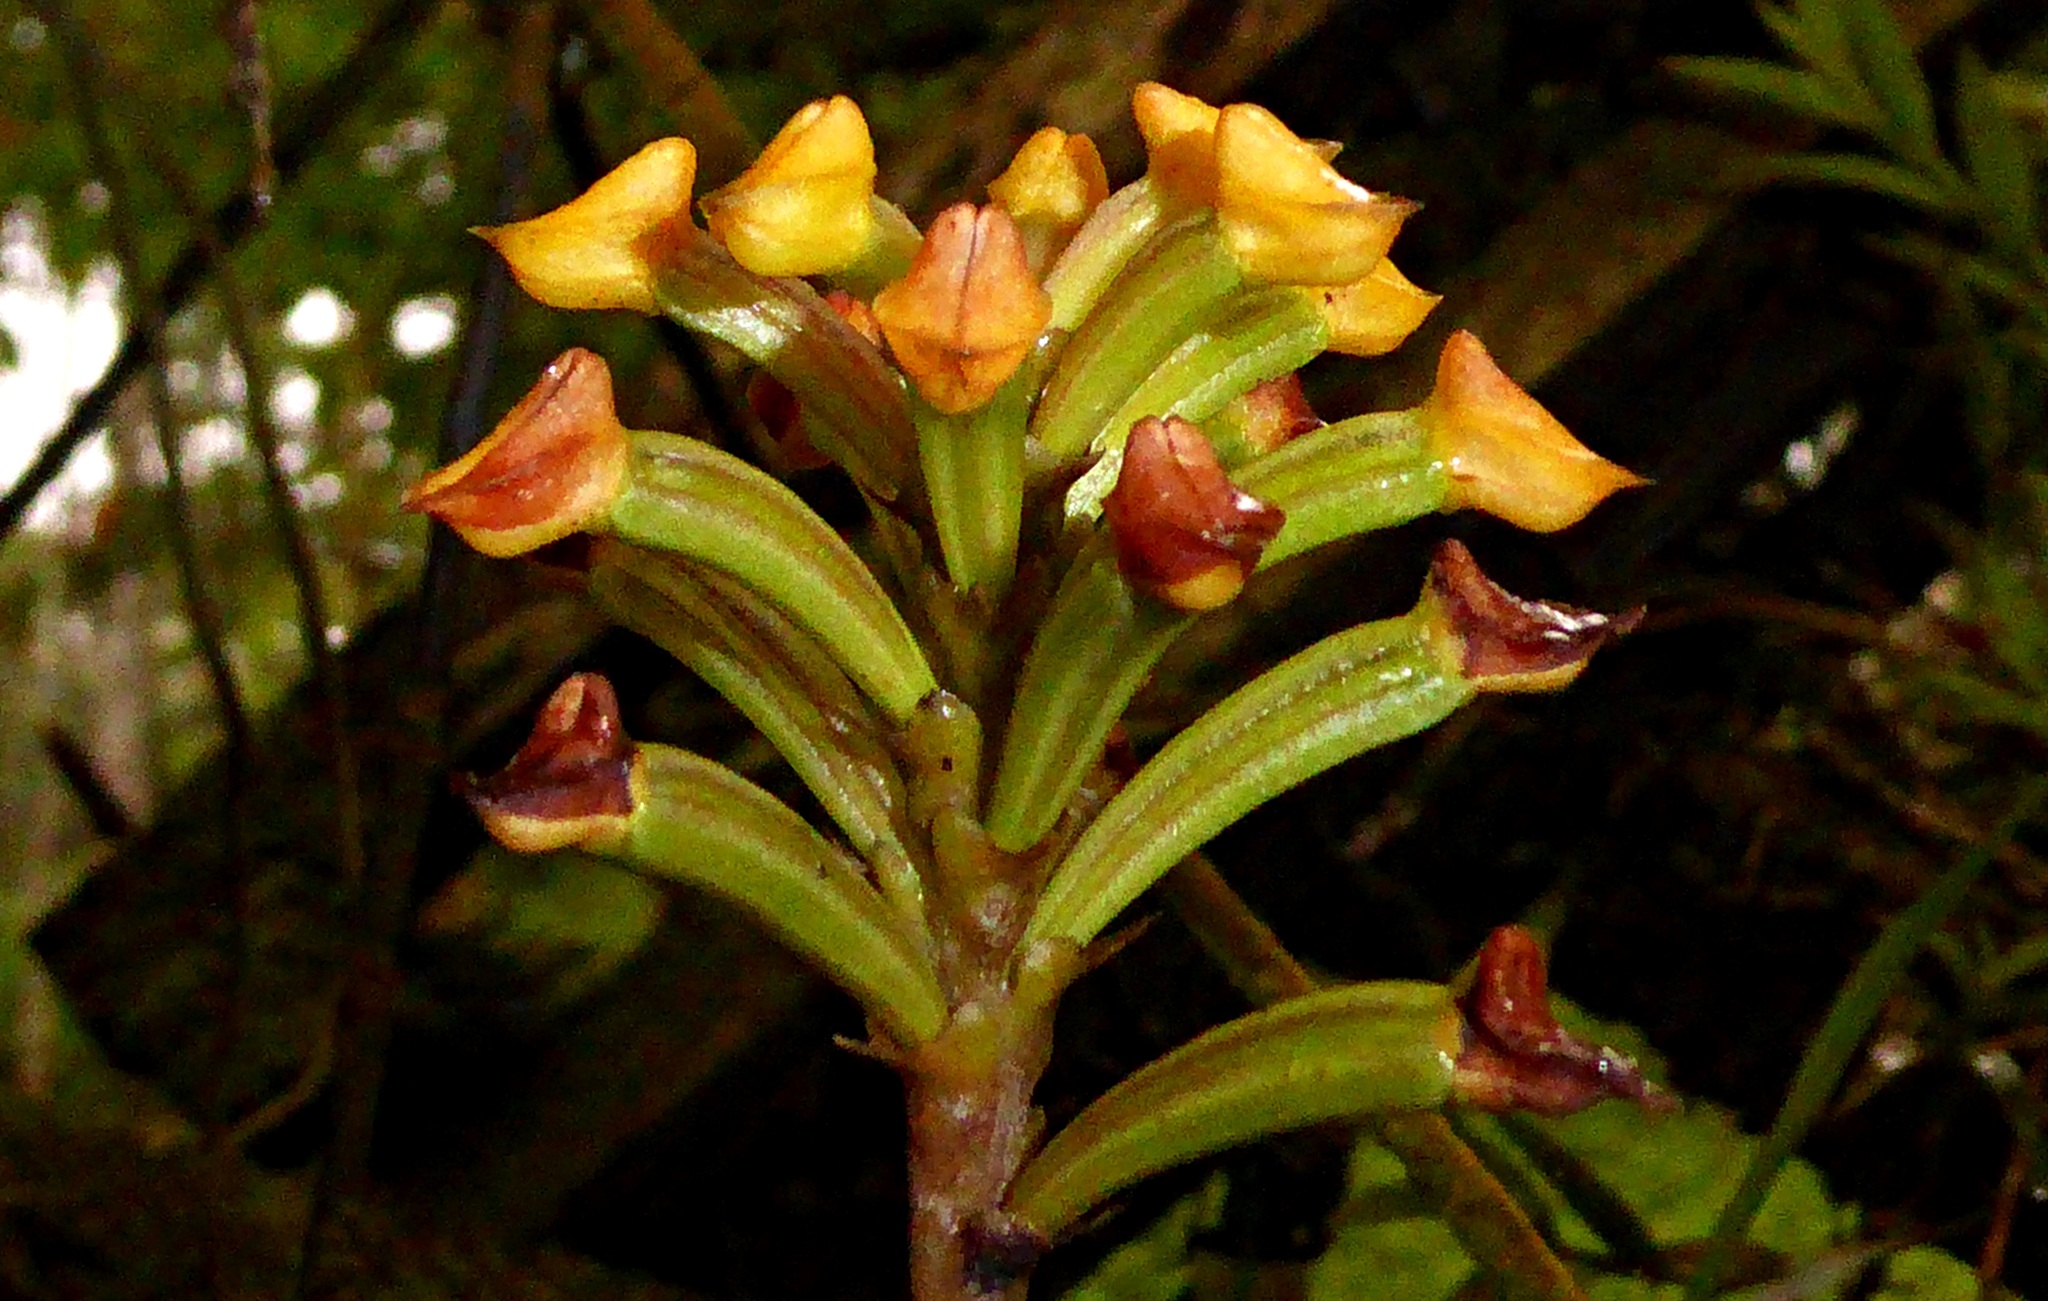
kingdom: Plantae
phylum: Tracheophyta
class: Liliopsida
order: Asparagales
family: Orchidaceae
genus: Polystachya
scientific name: Polystachya pyramidalis
